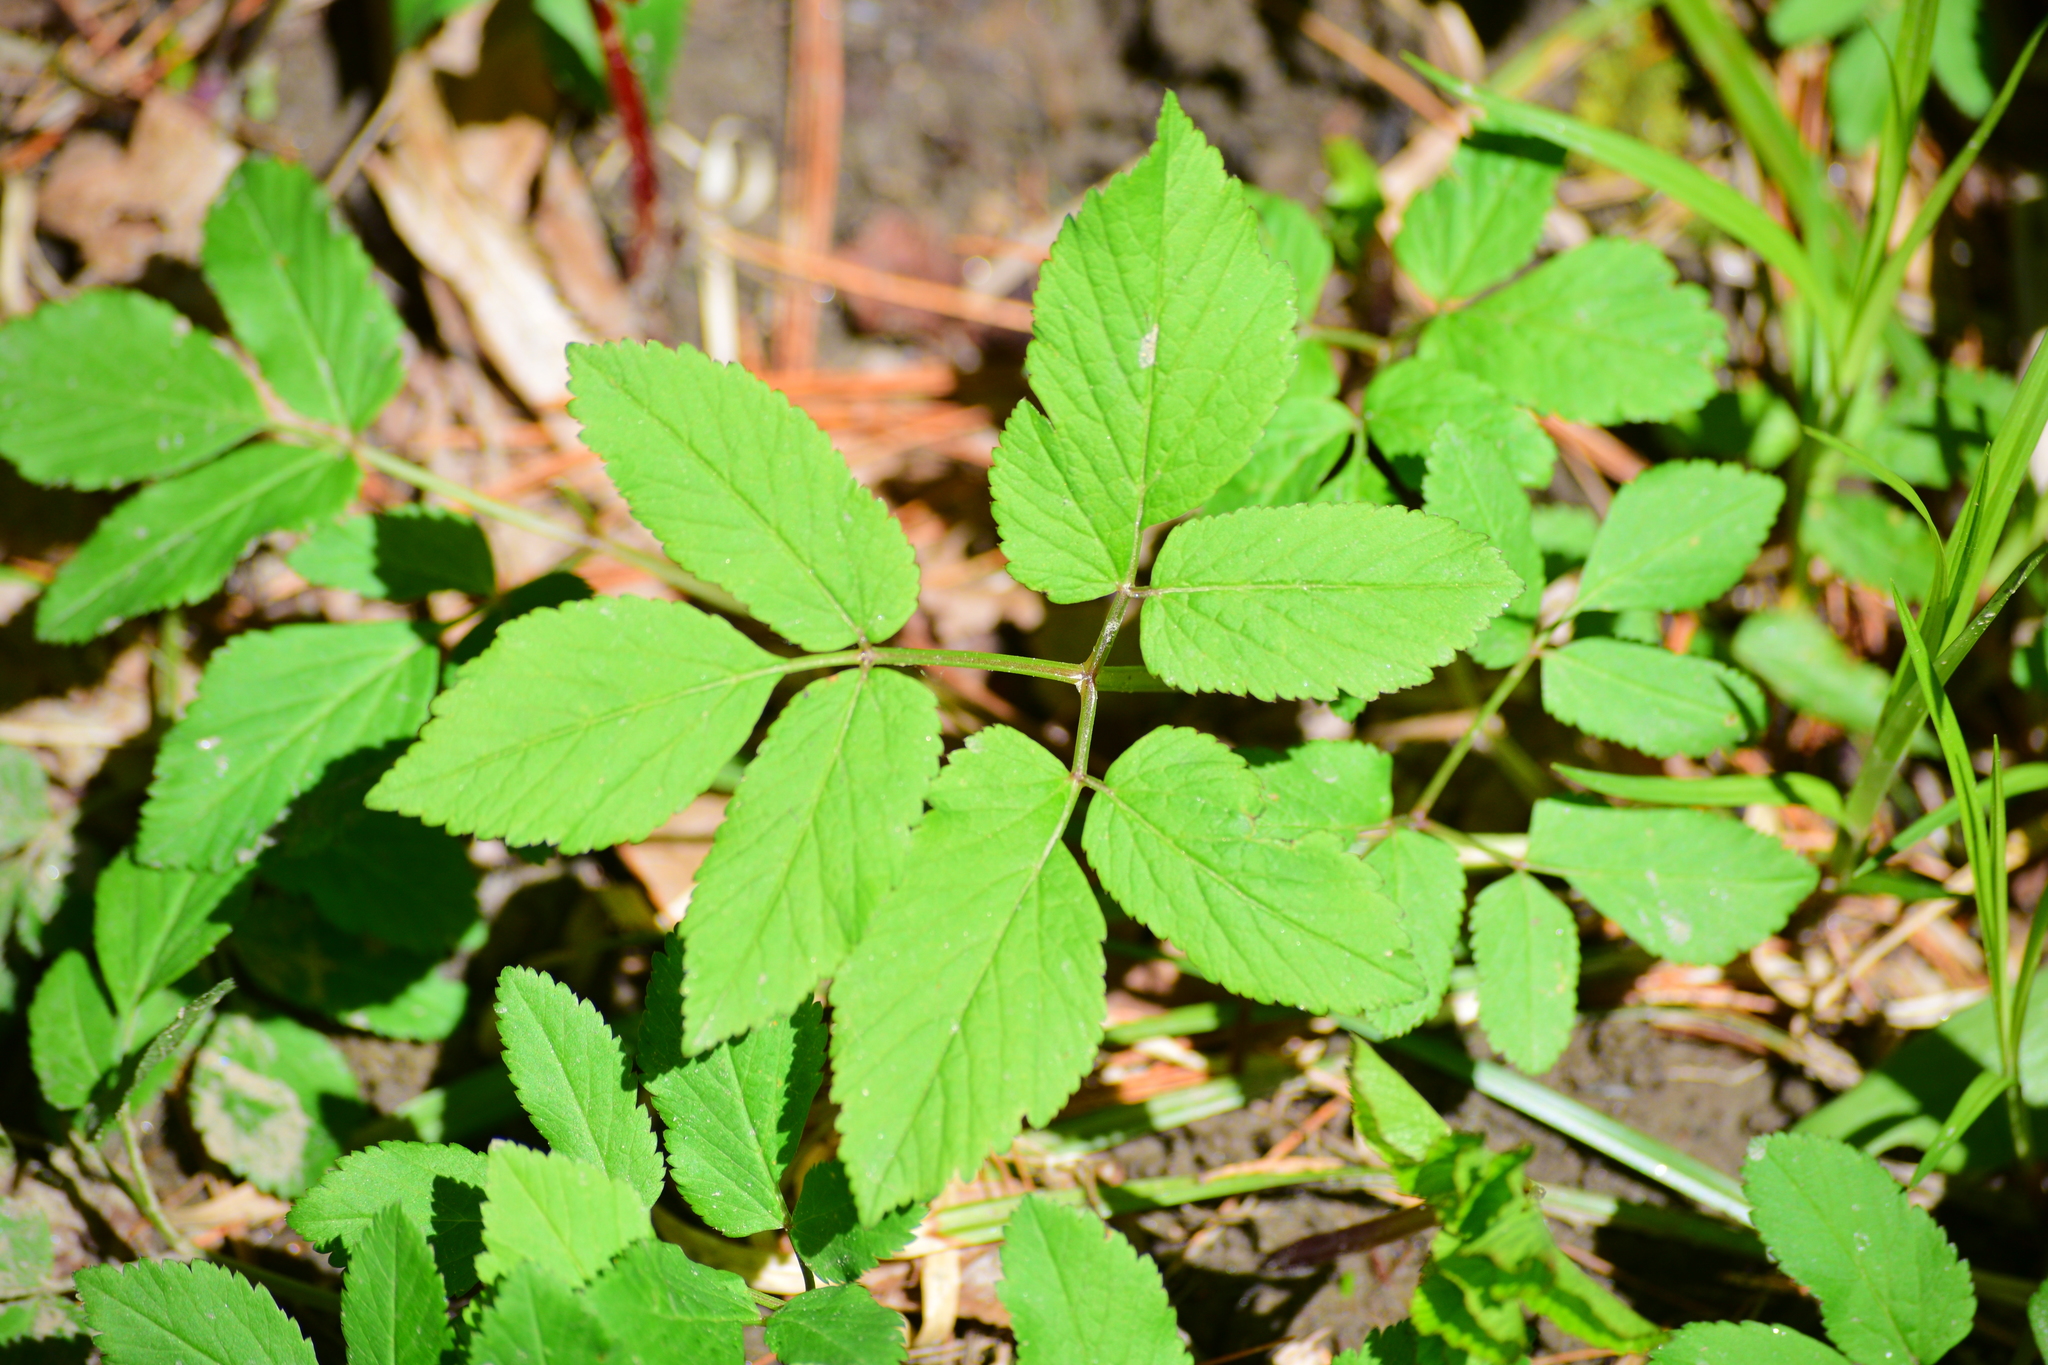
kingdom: Plantae
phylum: Tracheophyta
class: Magnoliopsida
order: Apiales
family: Apiaceae
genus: Aegopodium
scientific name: Aegopodium podagraria
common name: Ground-elder
